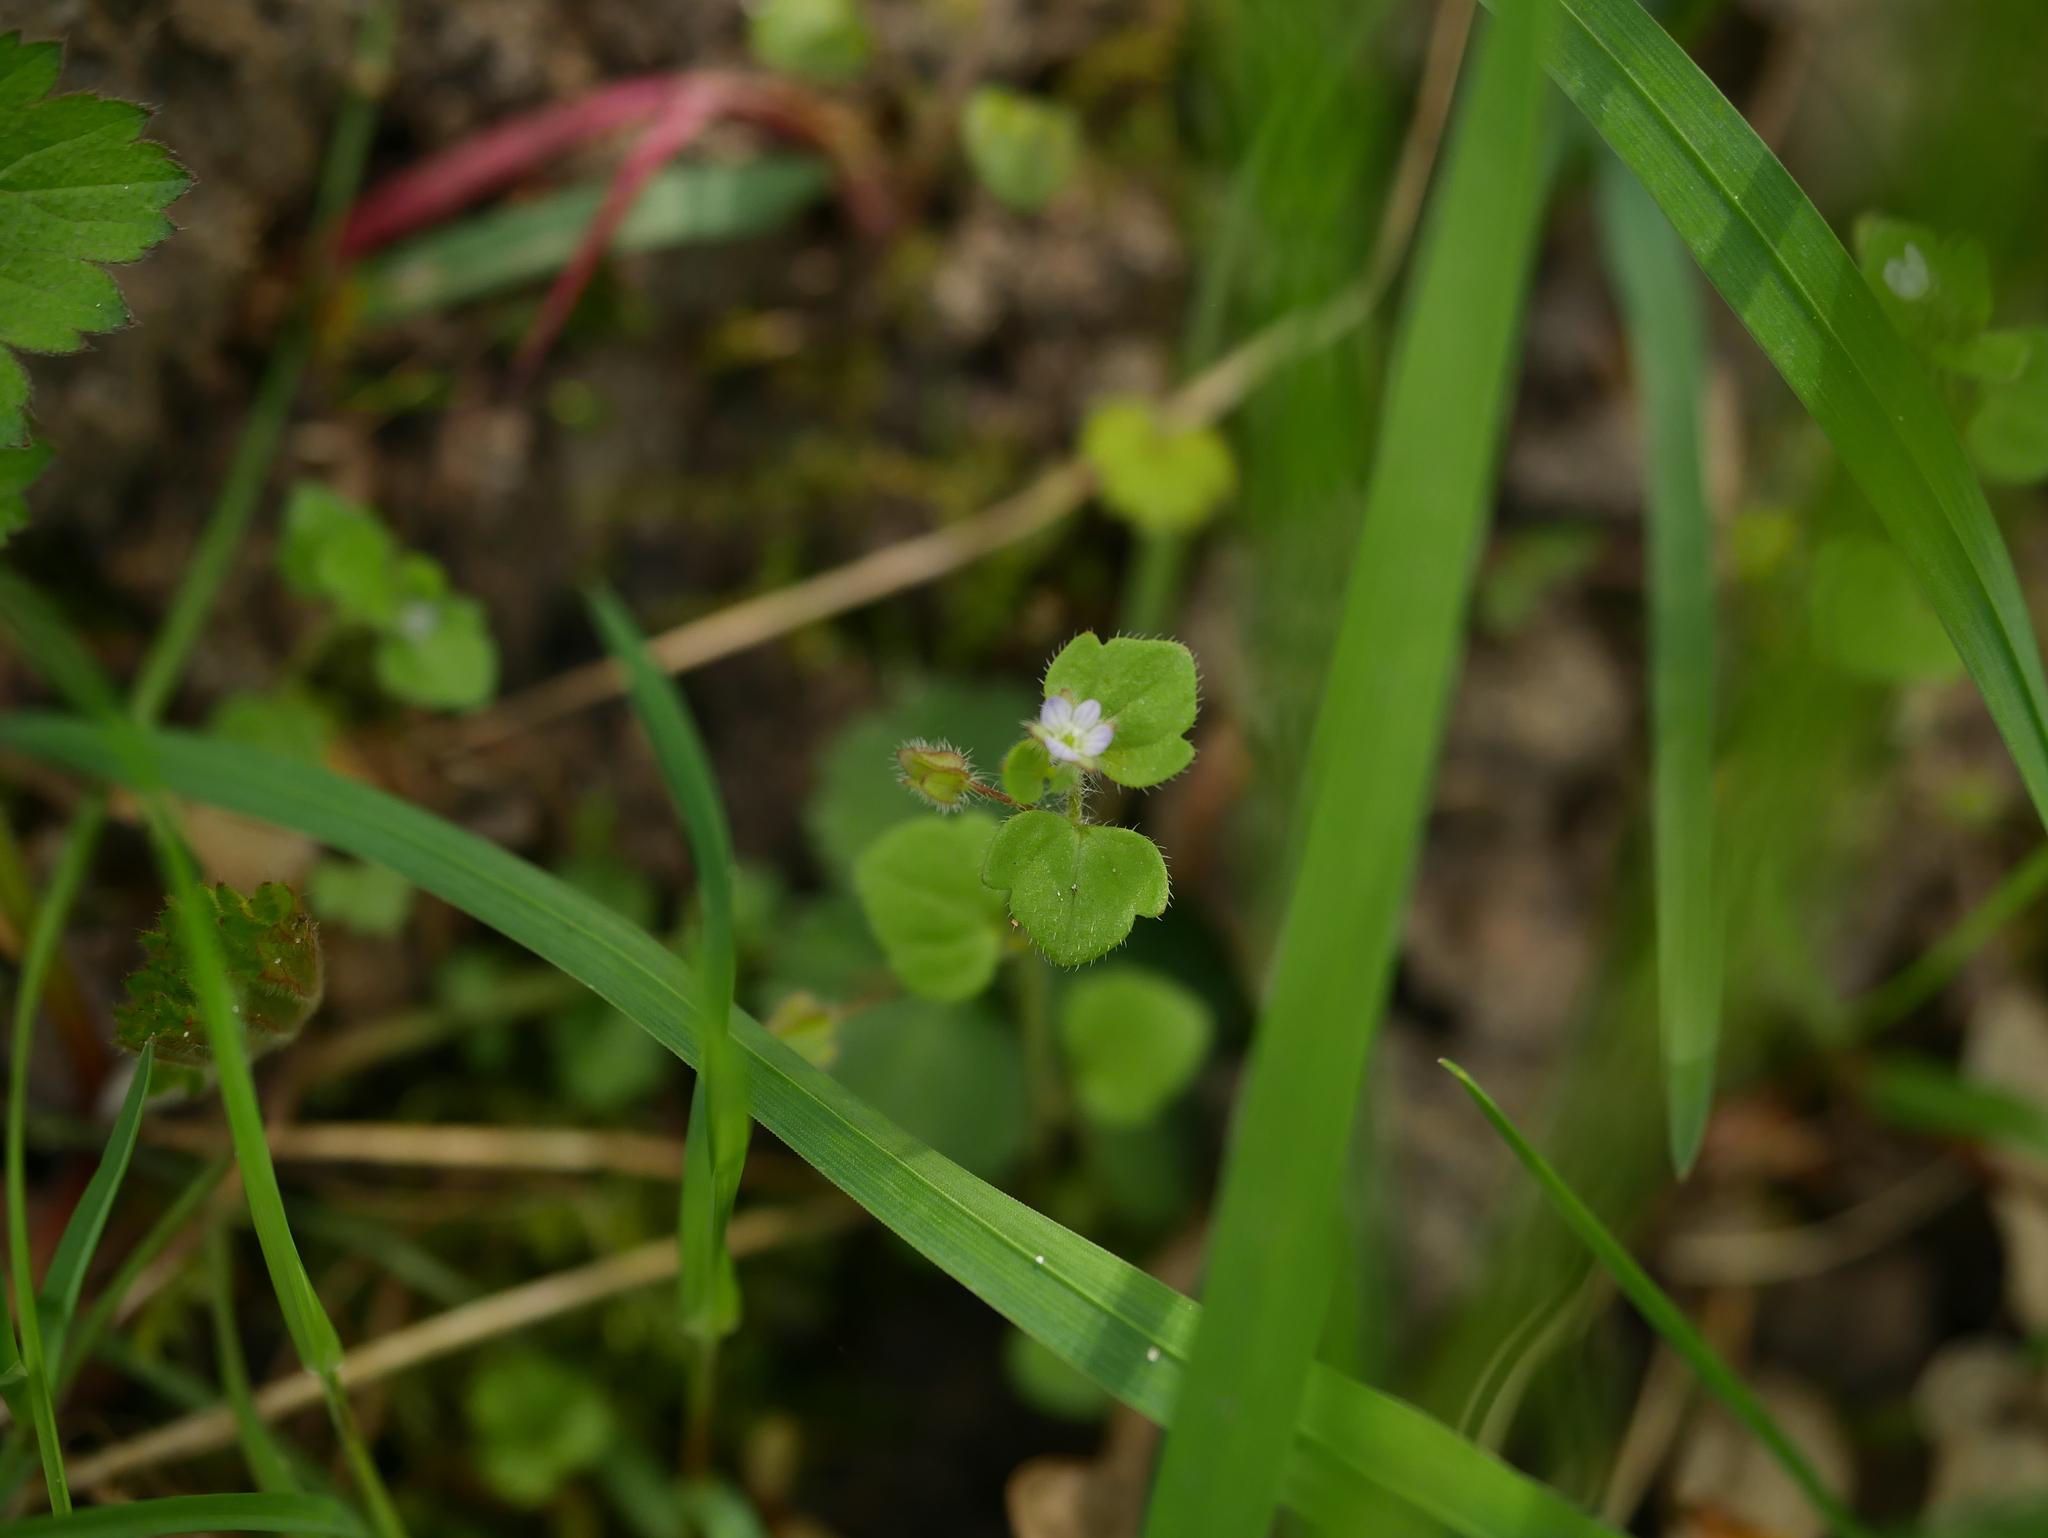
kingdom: Plantae
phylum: Tracheophyta
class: Magnoliopsida
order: Lamiales
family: Plantaginaceae
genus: Veronica
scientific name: Veronica sublobata
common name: False ivy-leaved speedwell
